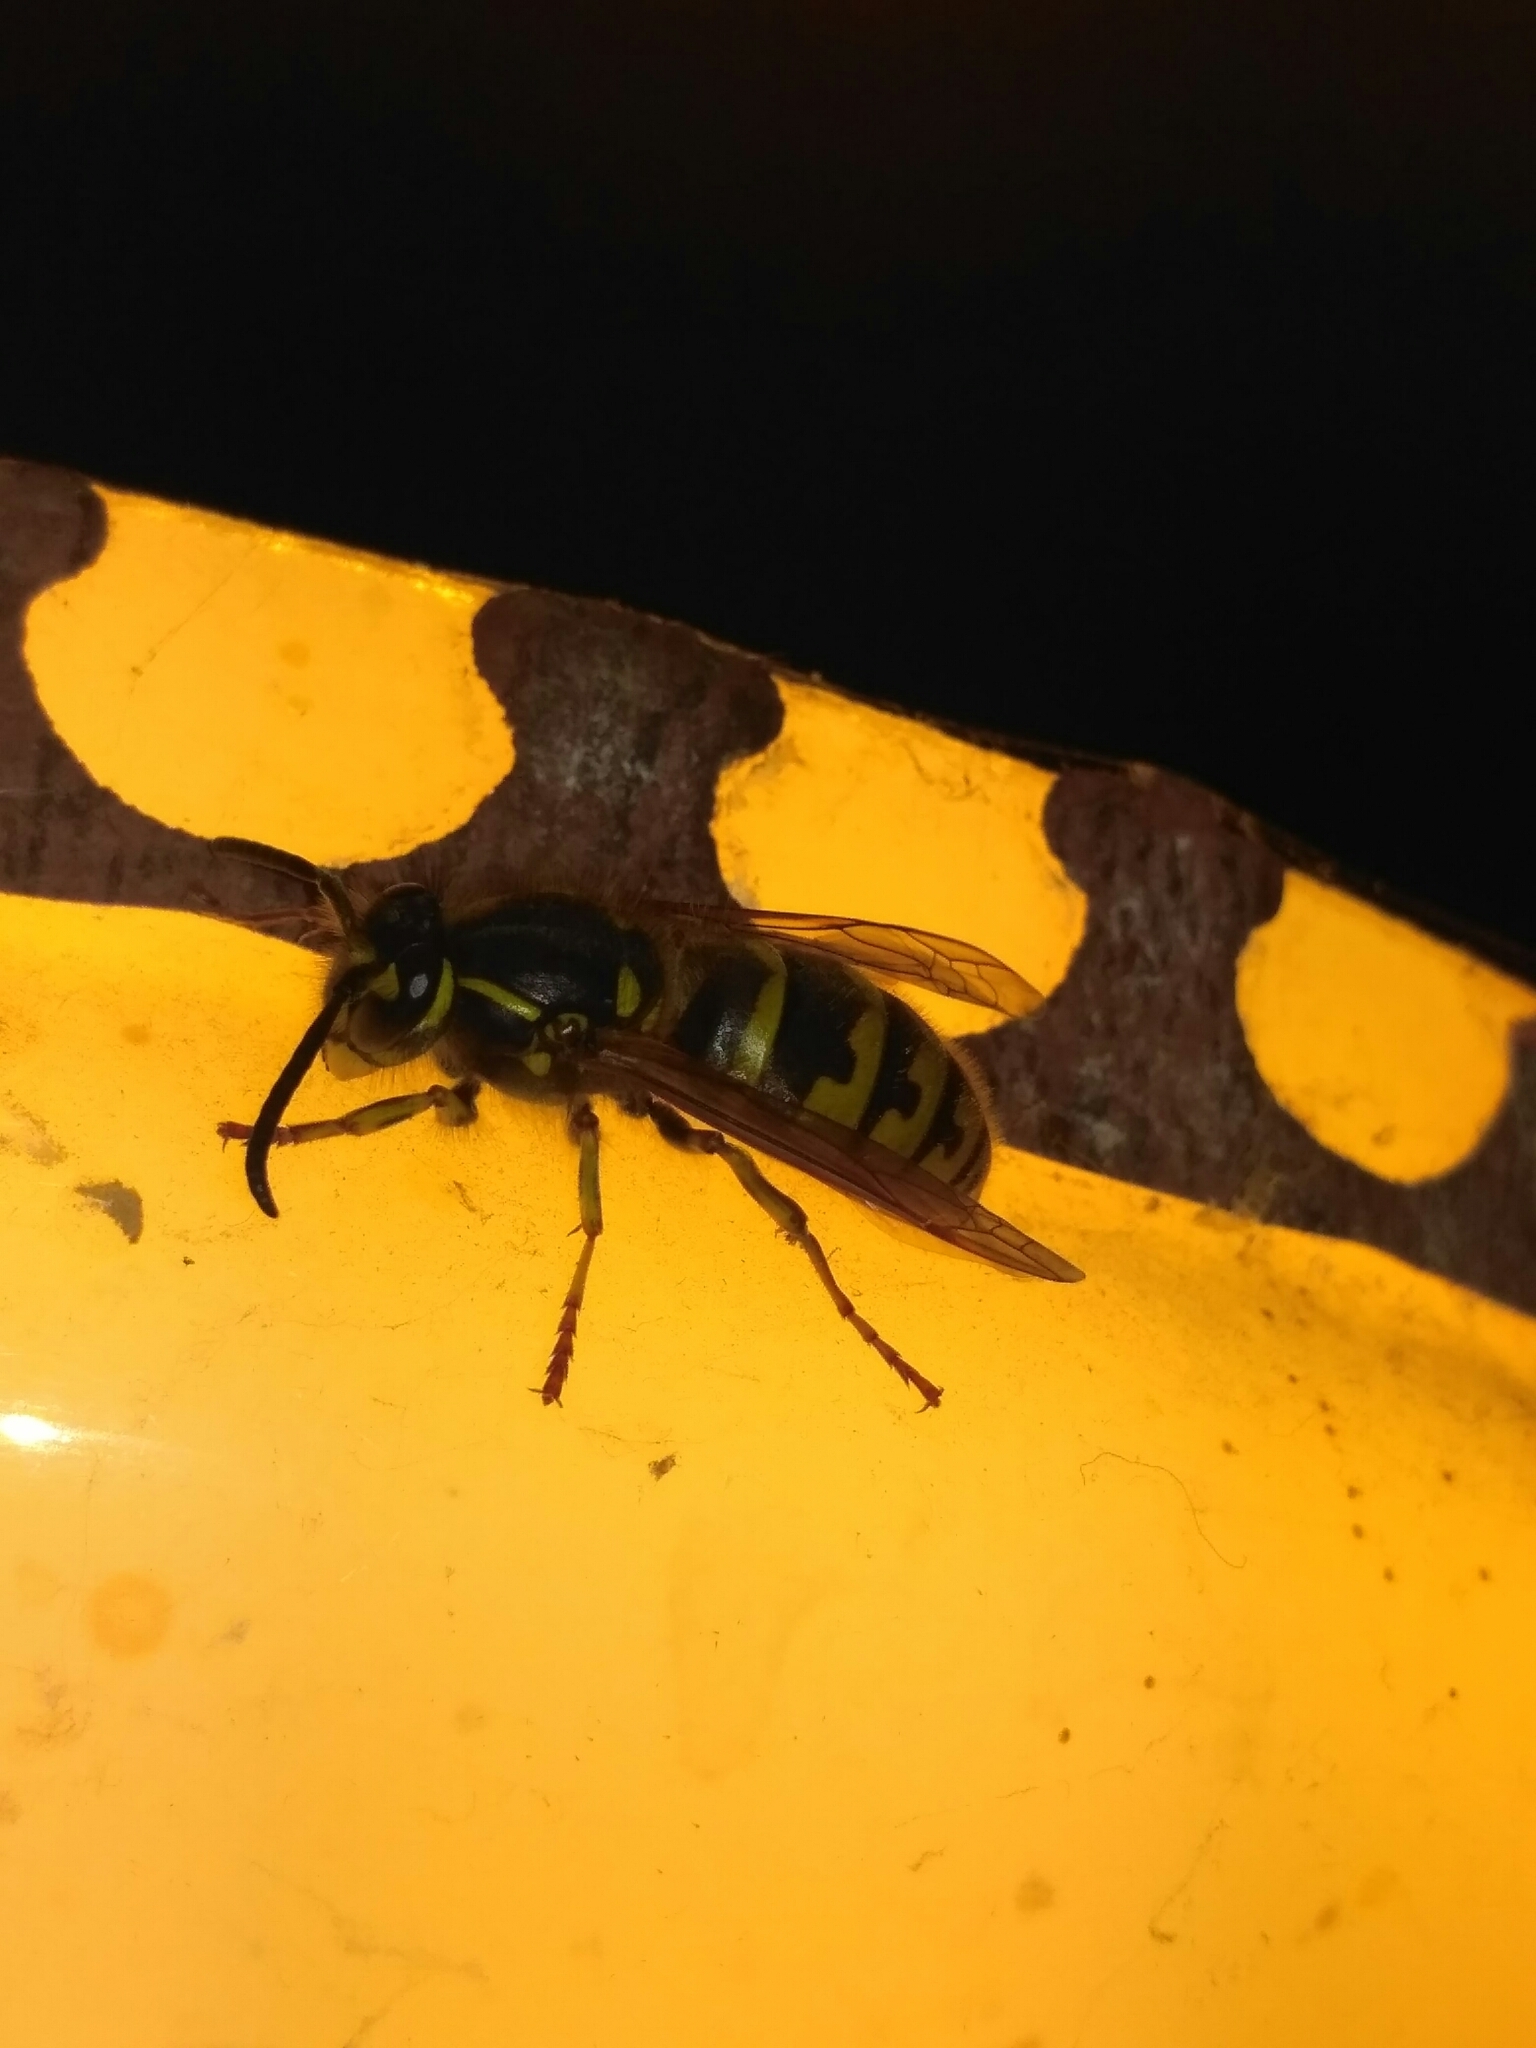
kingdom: Animalia
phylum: Arthropoda
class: Insecta
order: Hymenoptera
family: Vespidae
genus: Vespula
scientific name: Vespula vulgaris
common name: Common wasp
